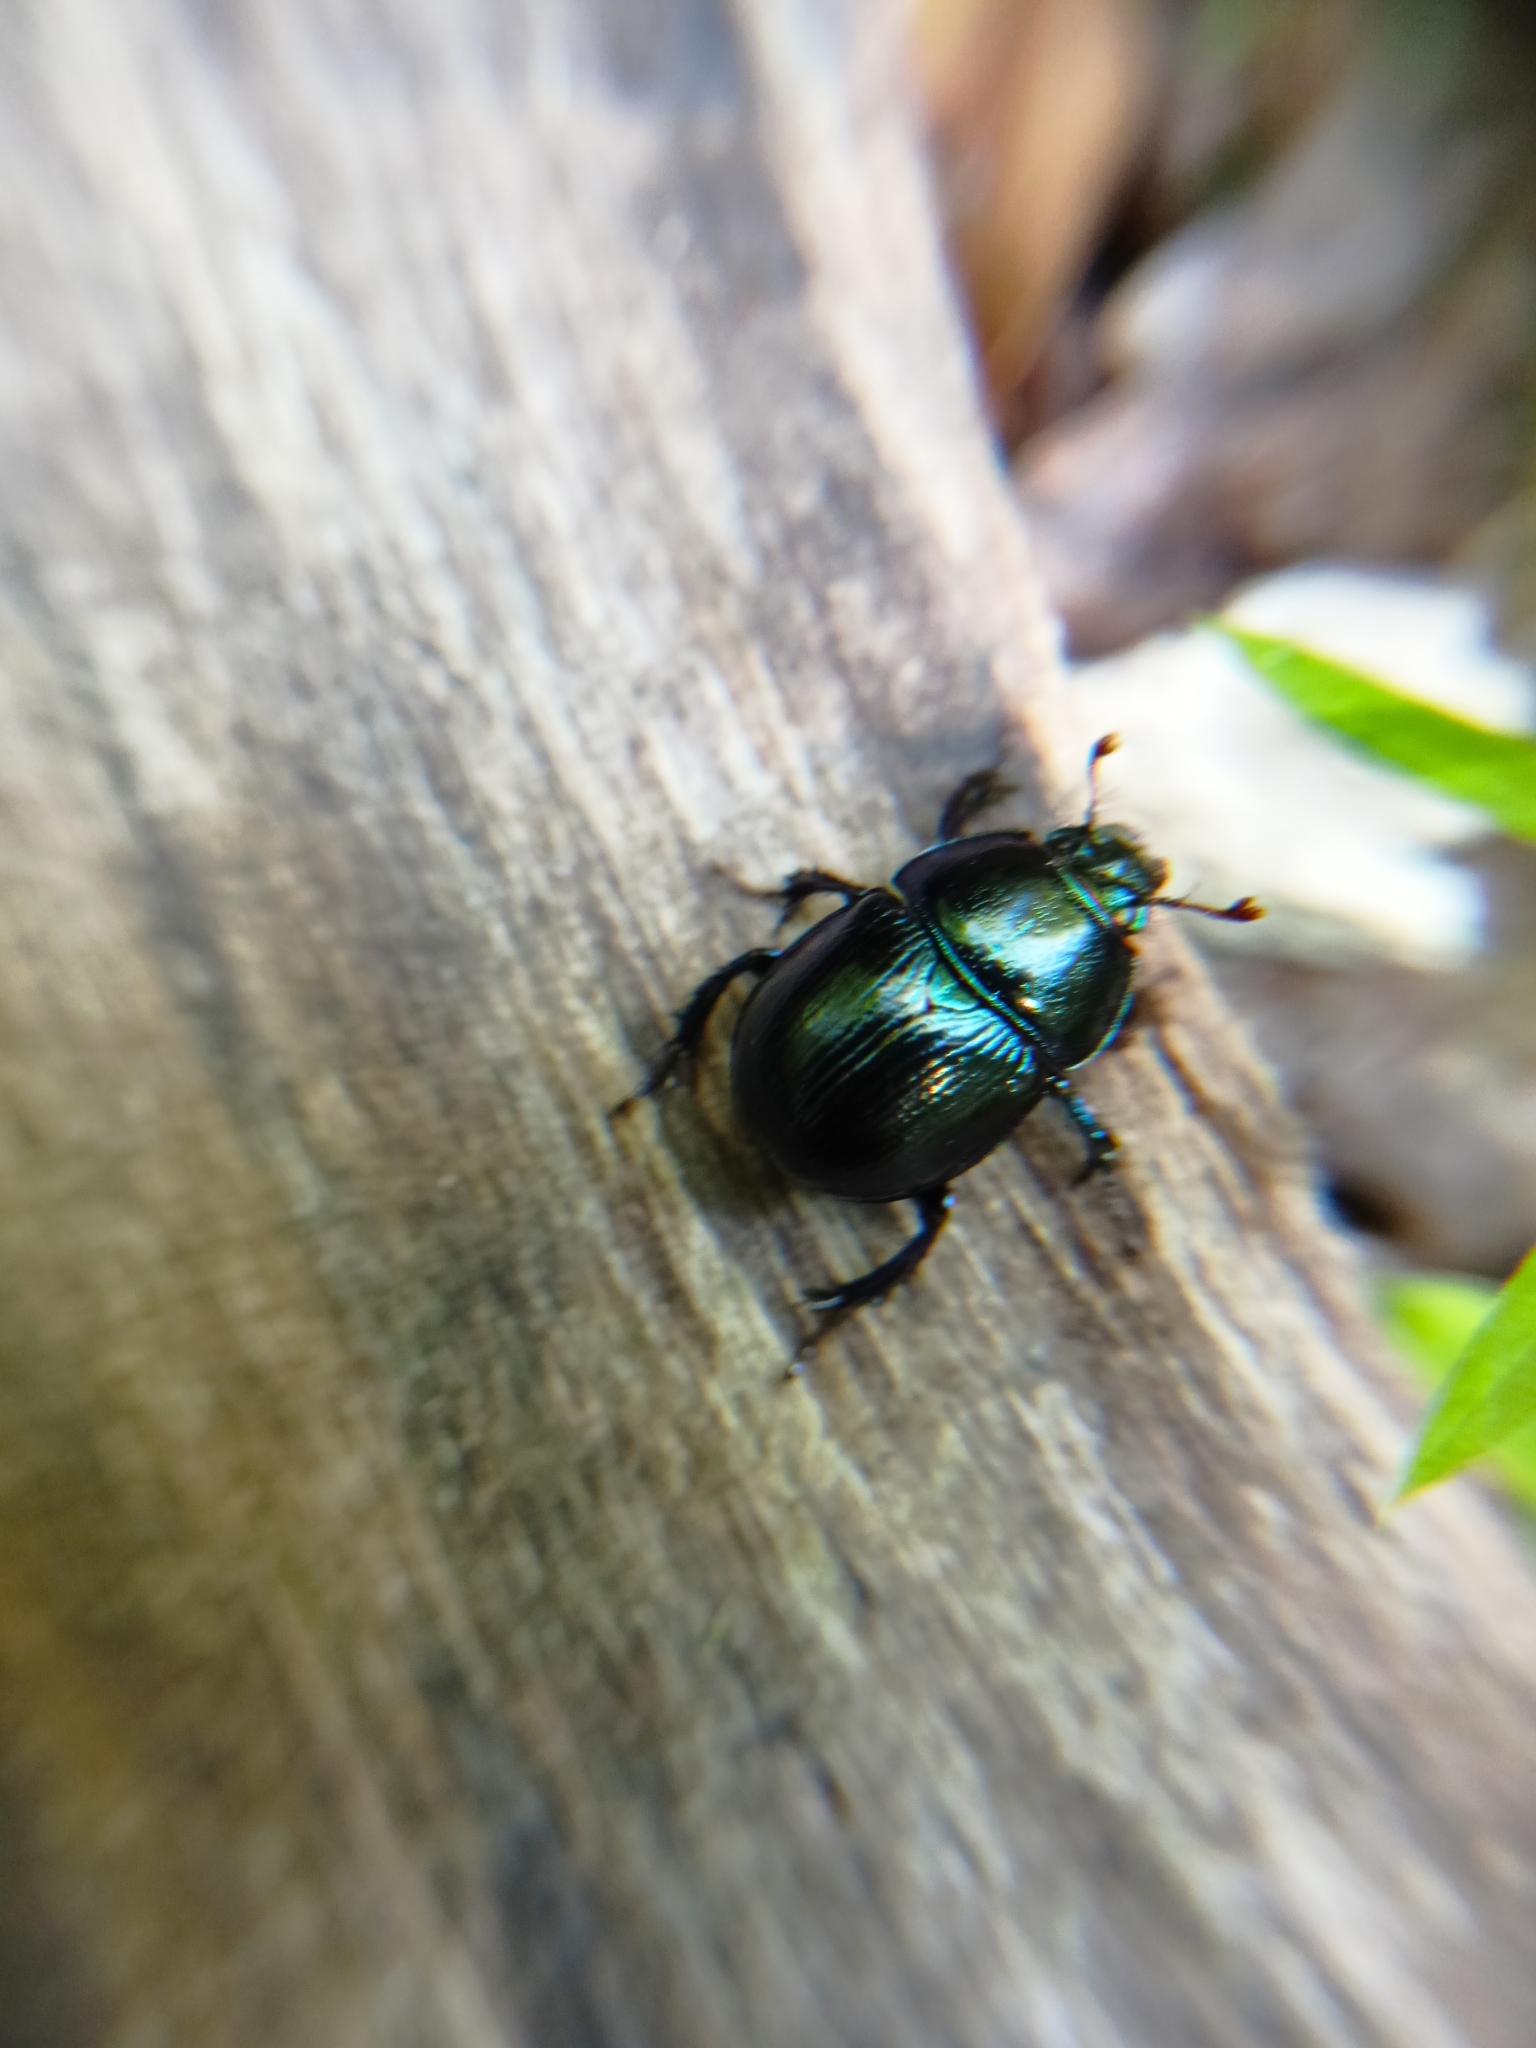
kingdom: Animalia
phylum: Arthropoda
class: Insecta
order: Coleoptera
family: Geotrupidae
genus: Anoplotrupes
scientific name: Anoplotrupes stercorosus
